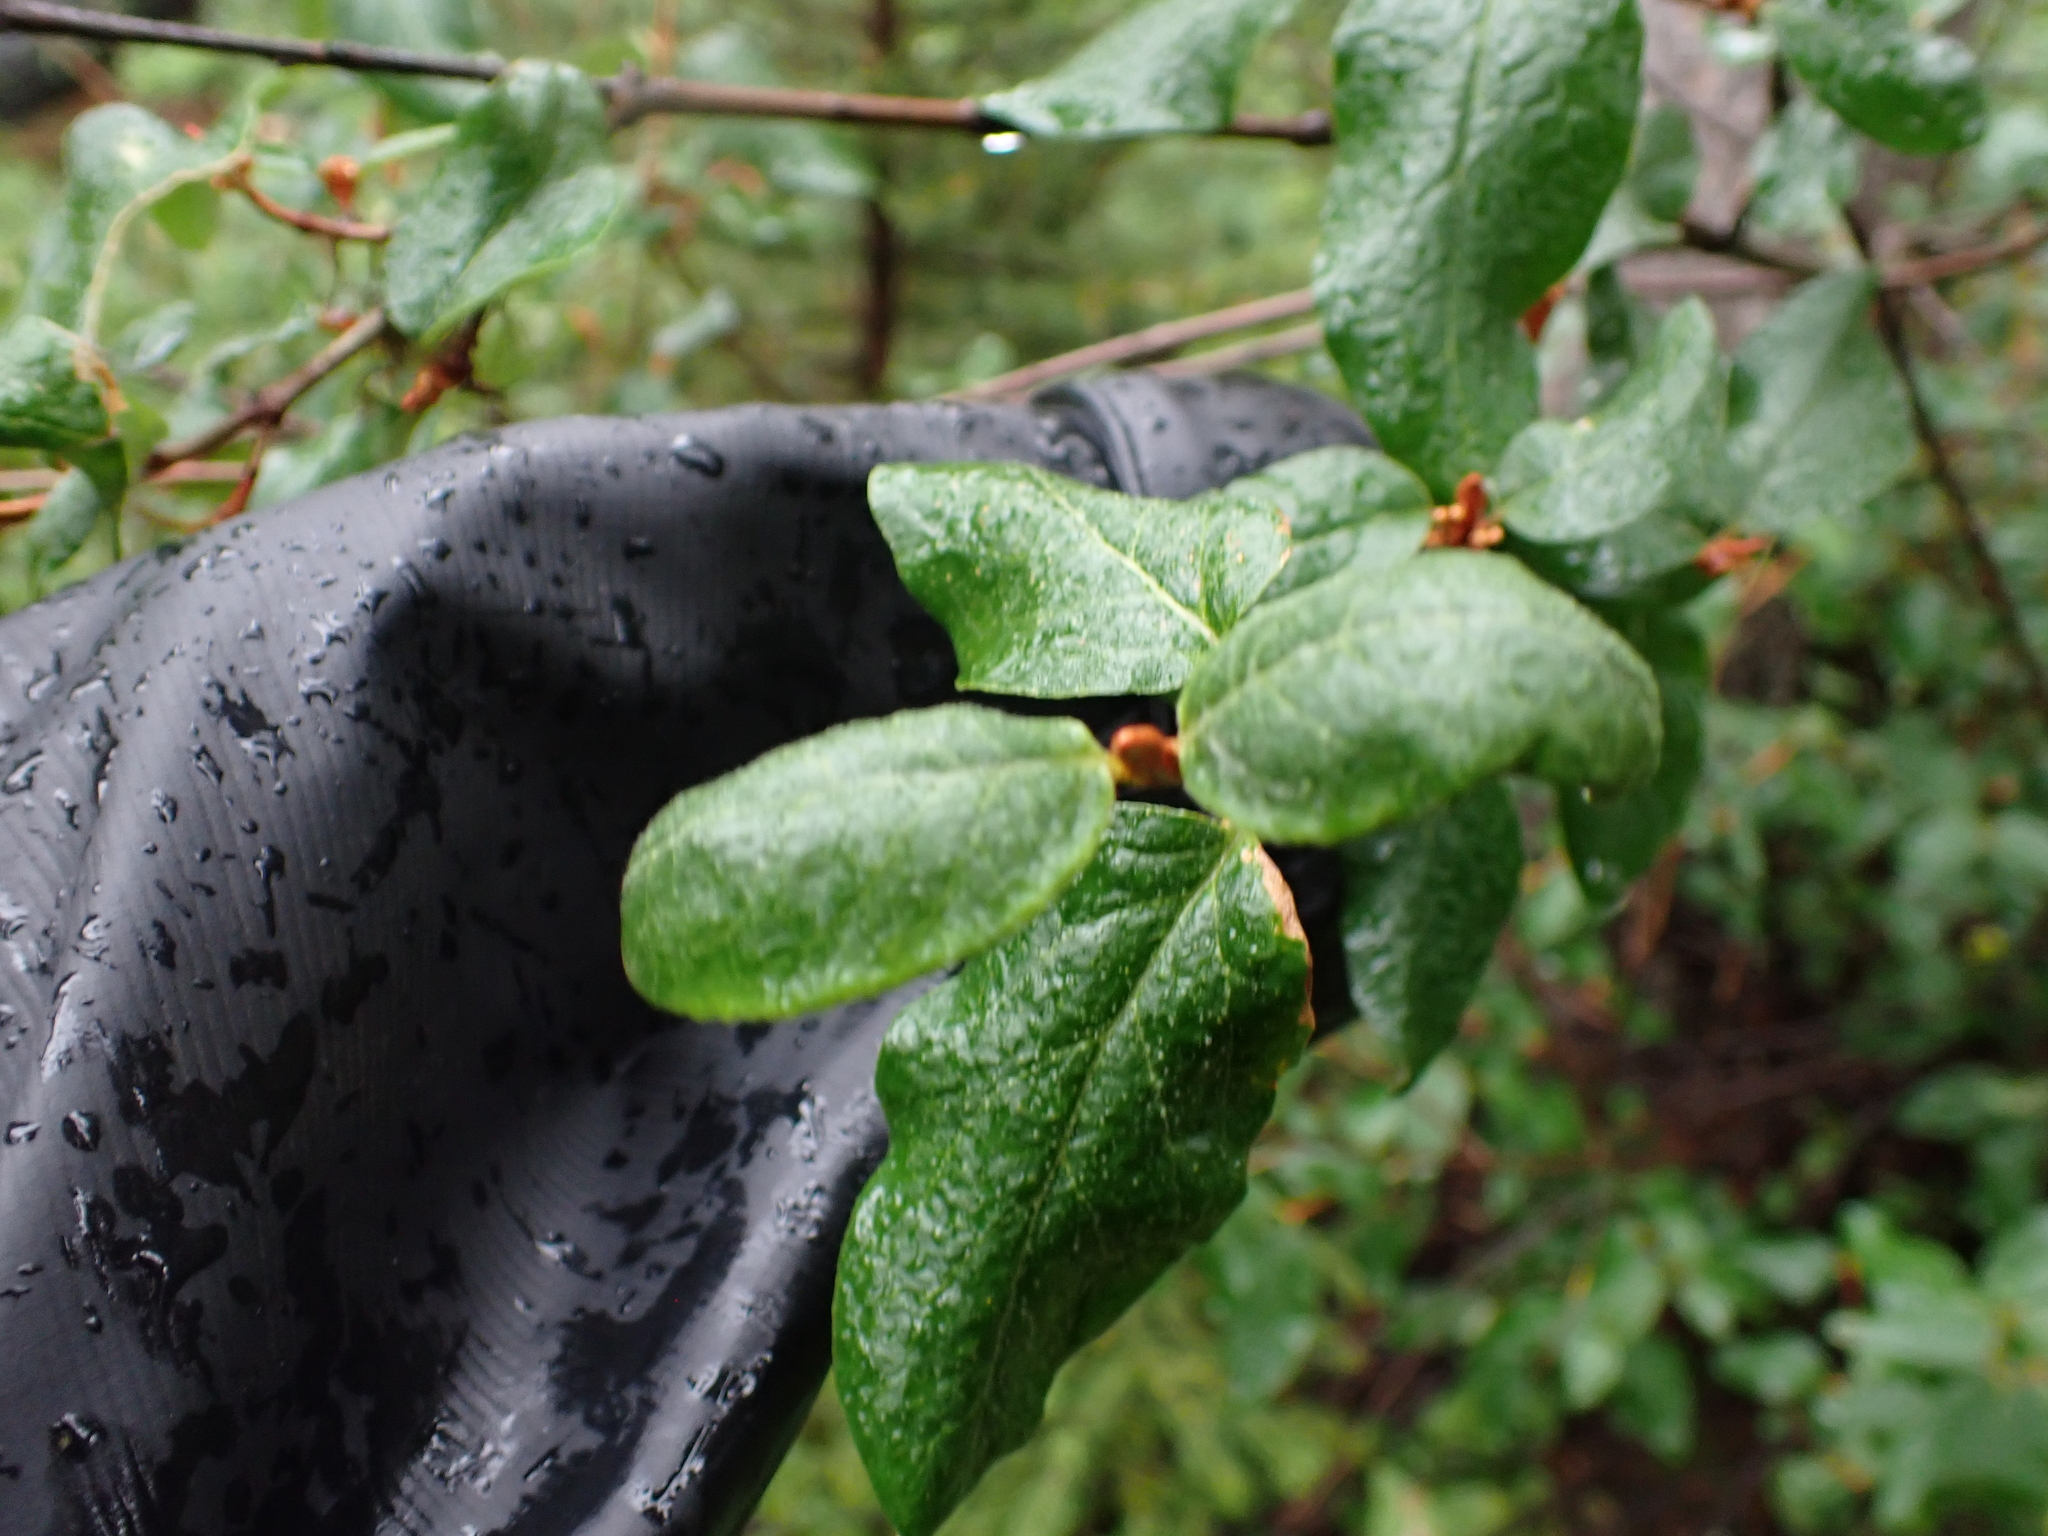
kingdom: Plantae
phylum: Tracheophyta
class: Magnoliopsida
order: Rosales
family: Elaeagnaceae
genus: Shepherdia
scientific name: Shepherdia canadensis
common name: Soapberry
